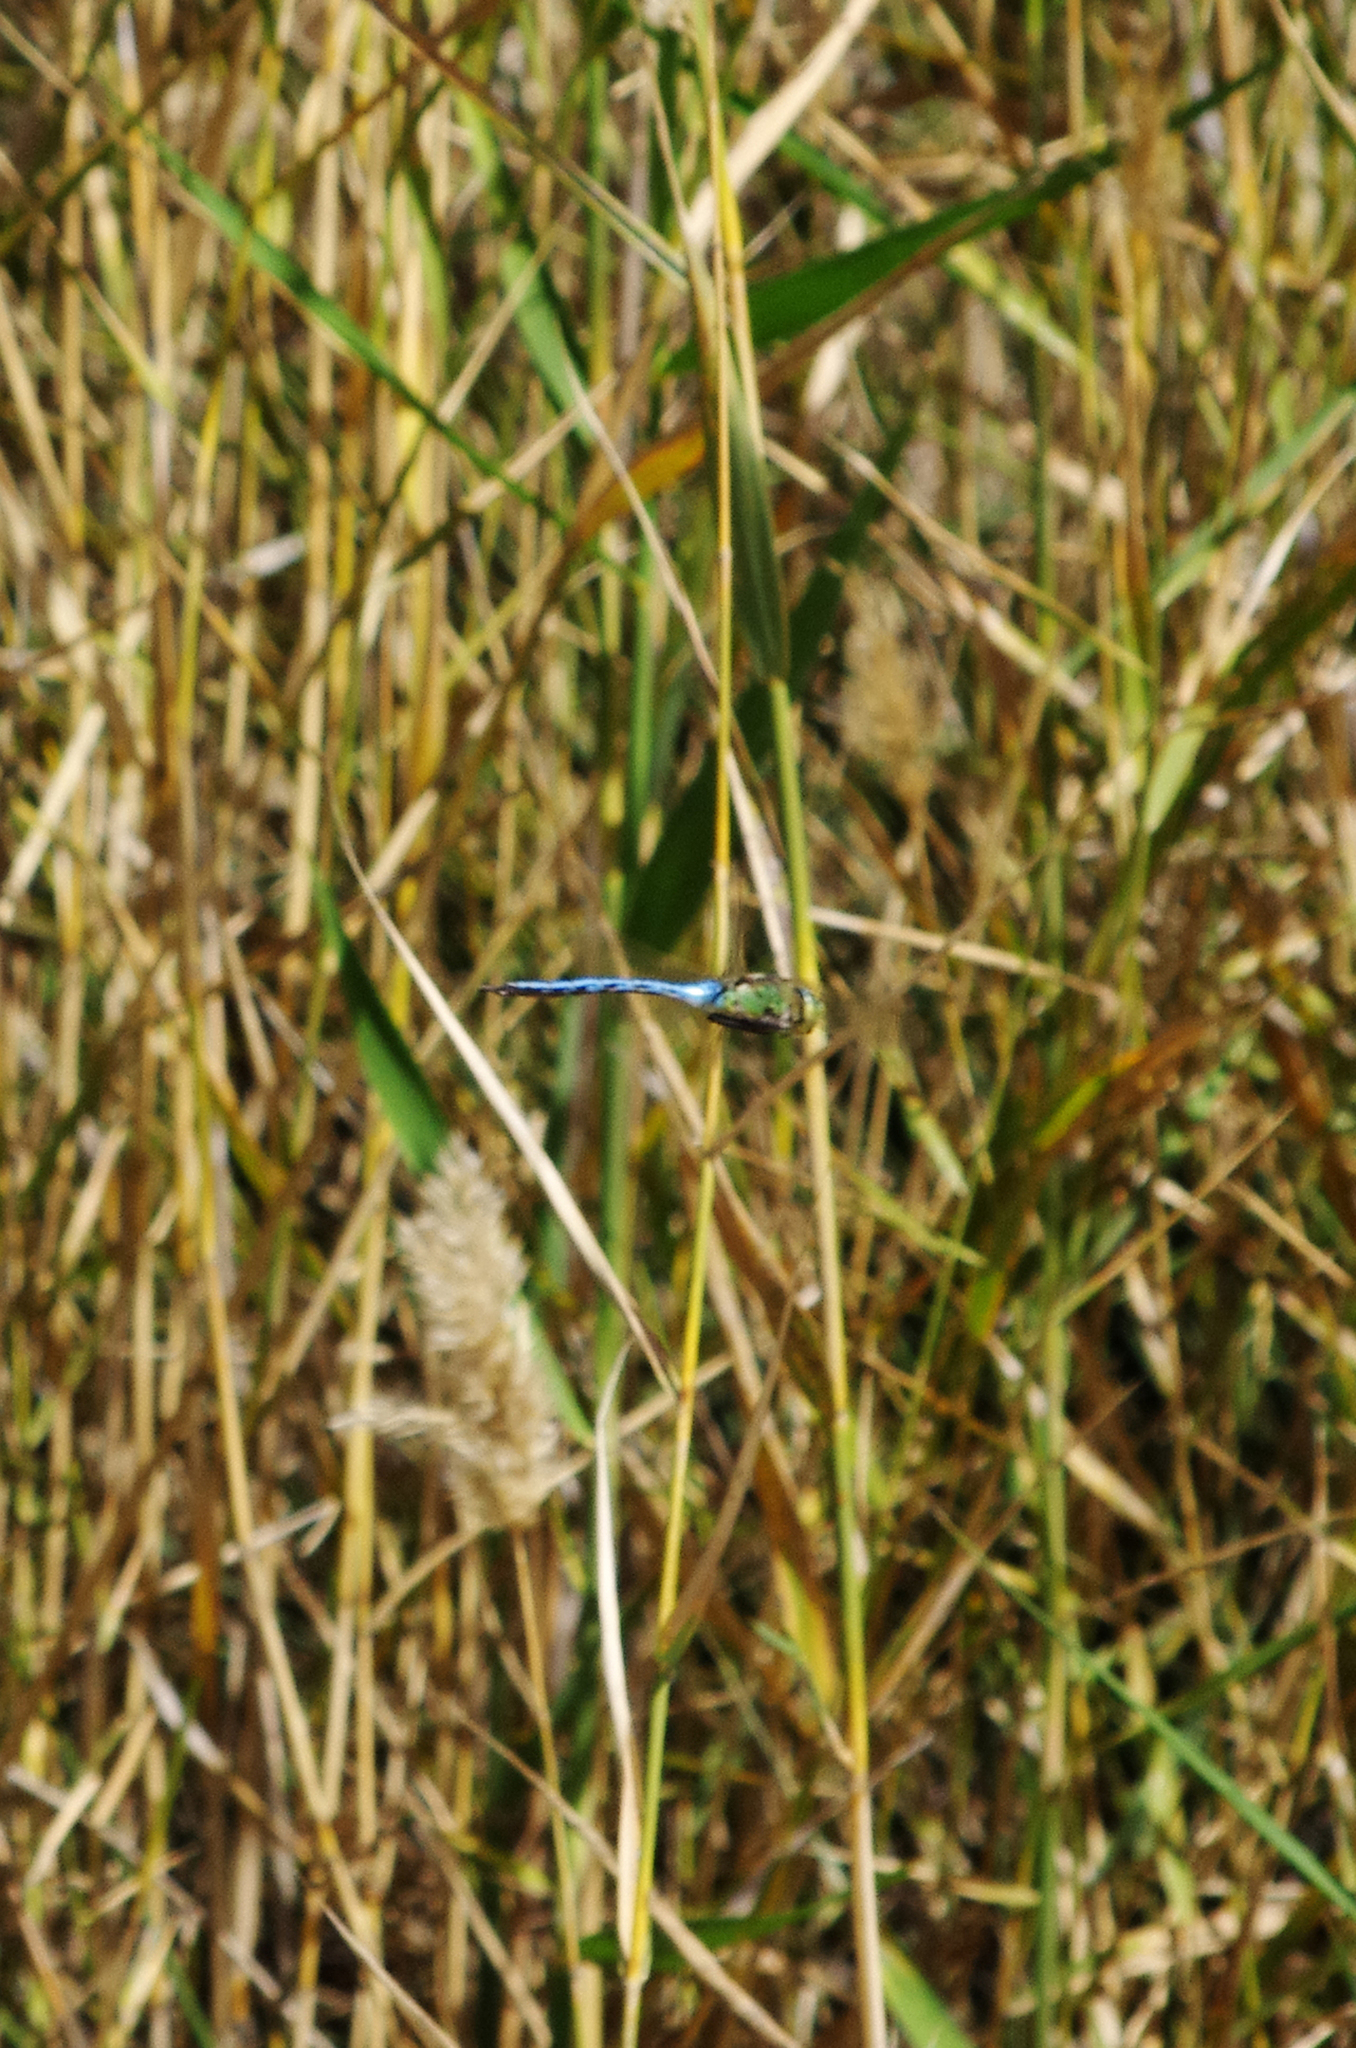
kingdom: Animalia
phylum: Arthropoda
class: Insecta
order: Odonata
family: Aeshnidae
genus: Anax
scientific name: Anax imperator
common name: Emperor dragonfly
